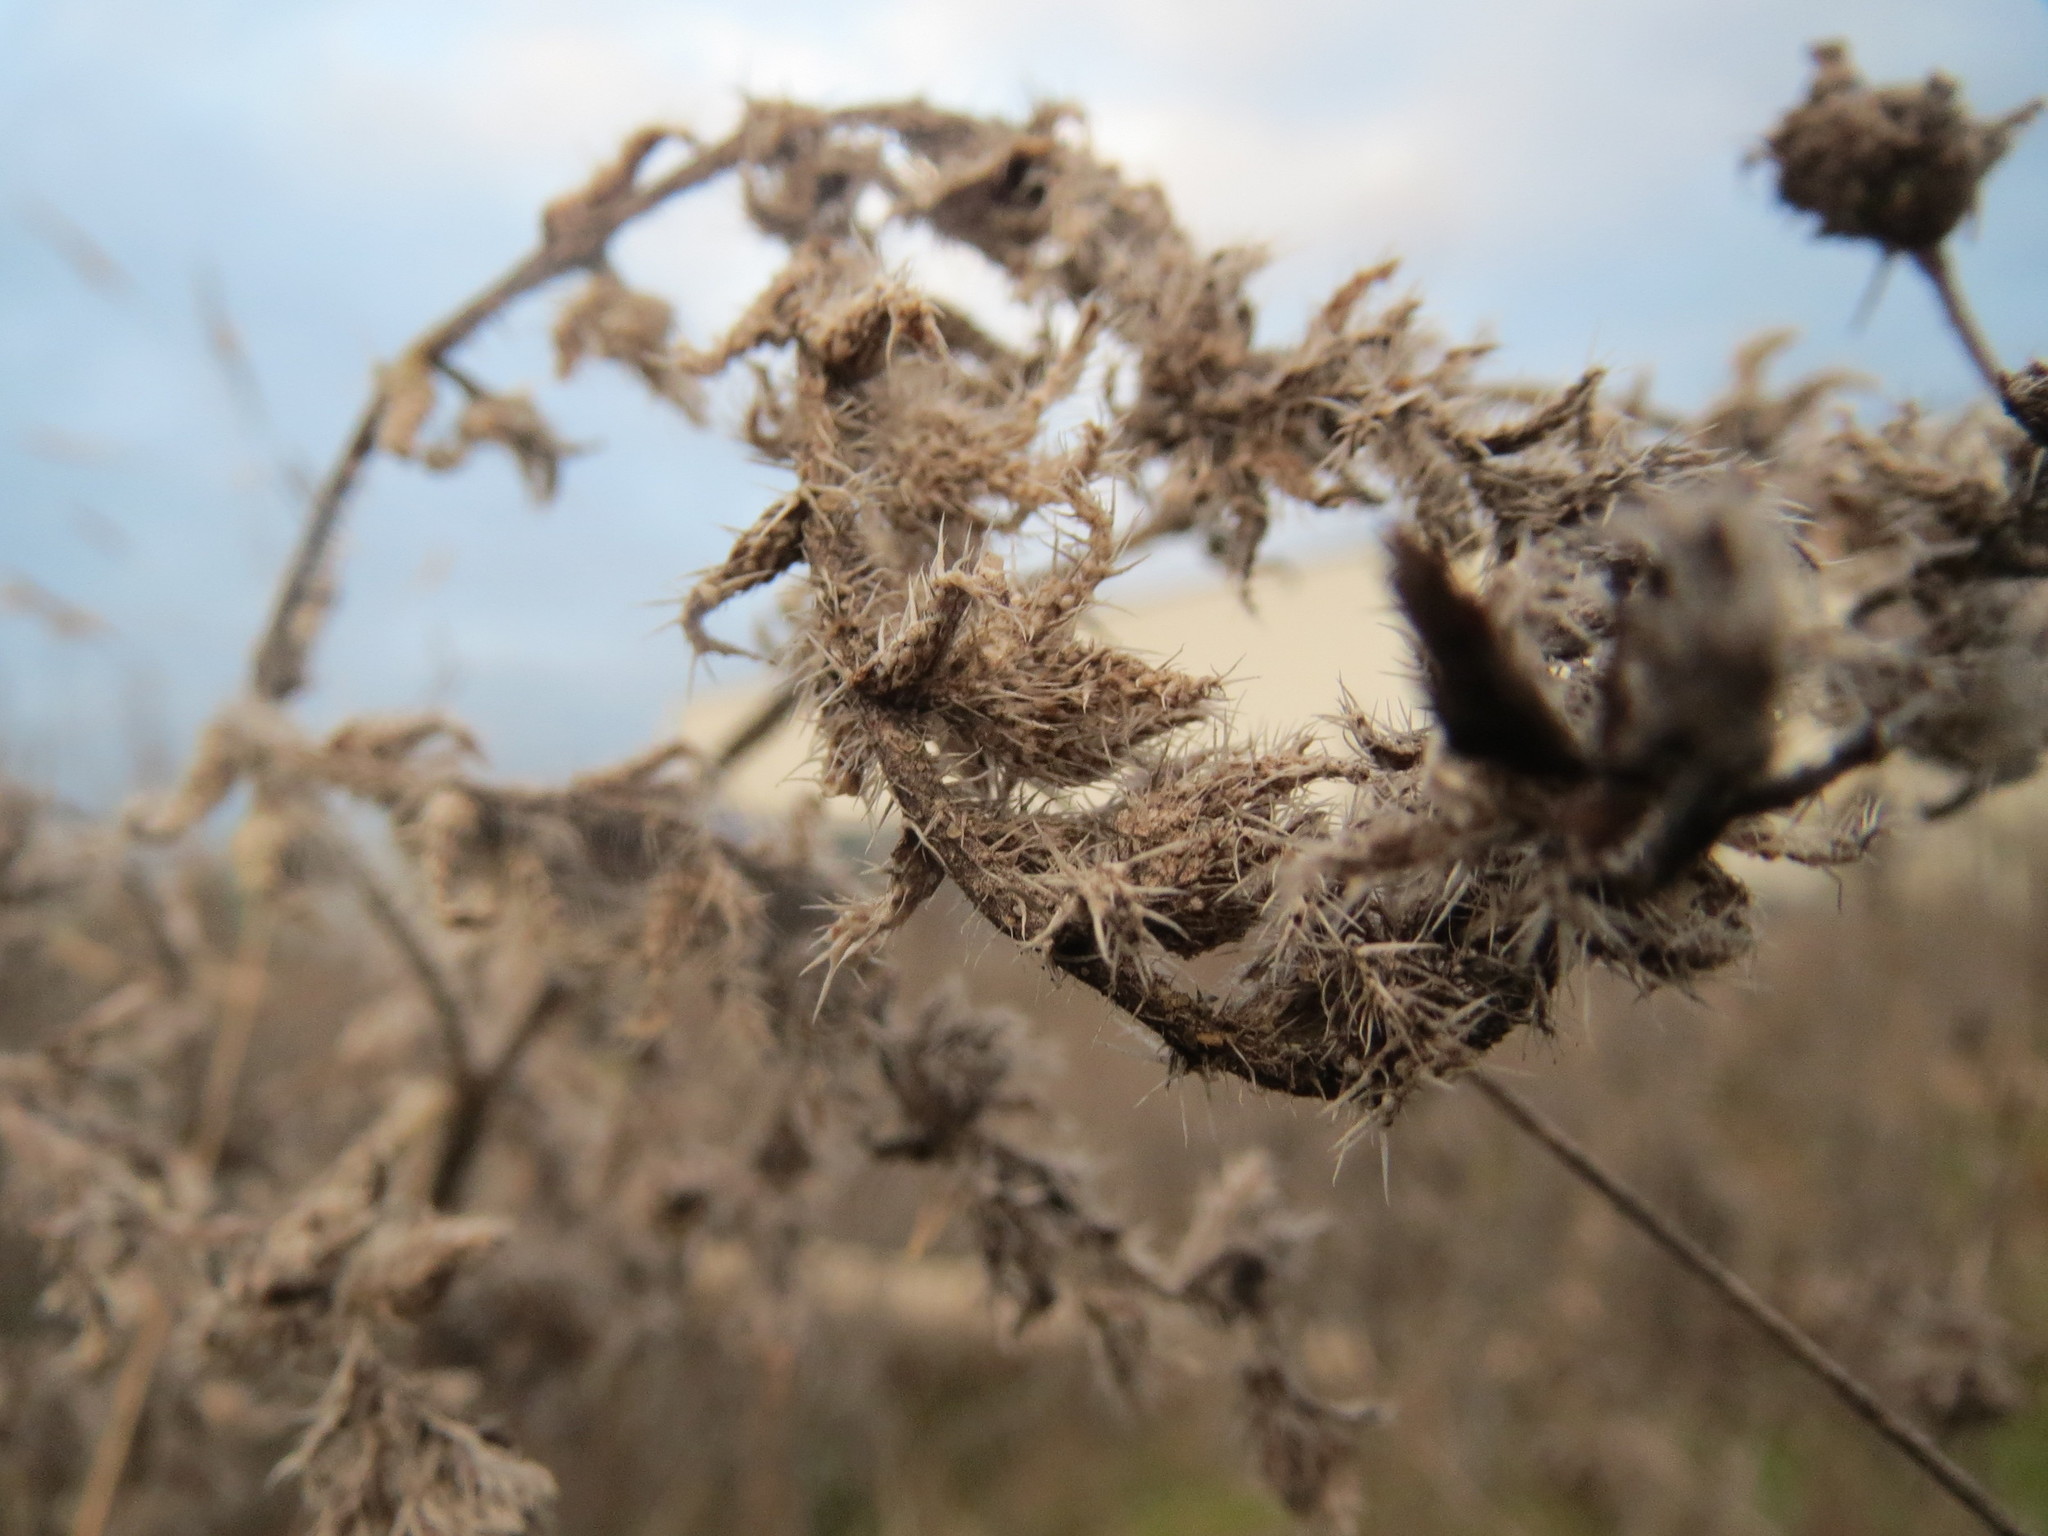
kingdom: Plantae
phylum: Tracheophyta
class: Magnoliopsida
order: Boraginales
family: Boraginaceae
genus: Echium
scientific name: Echium vulgare
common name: Common viper's bugloss
